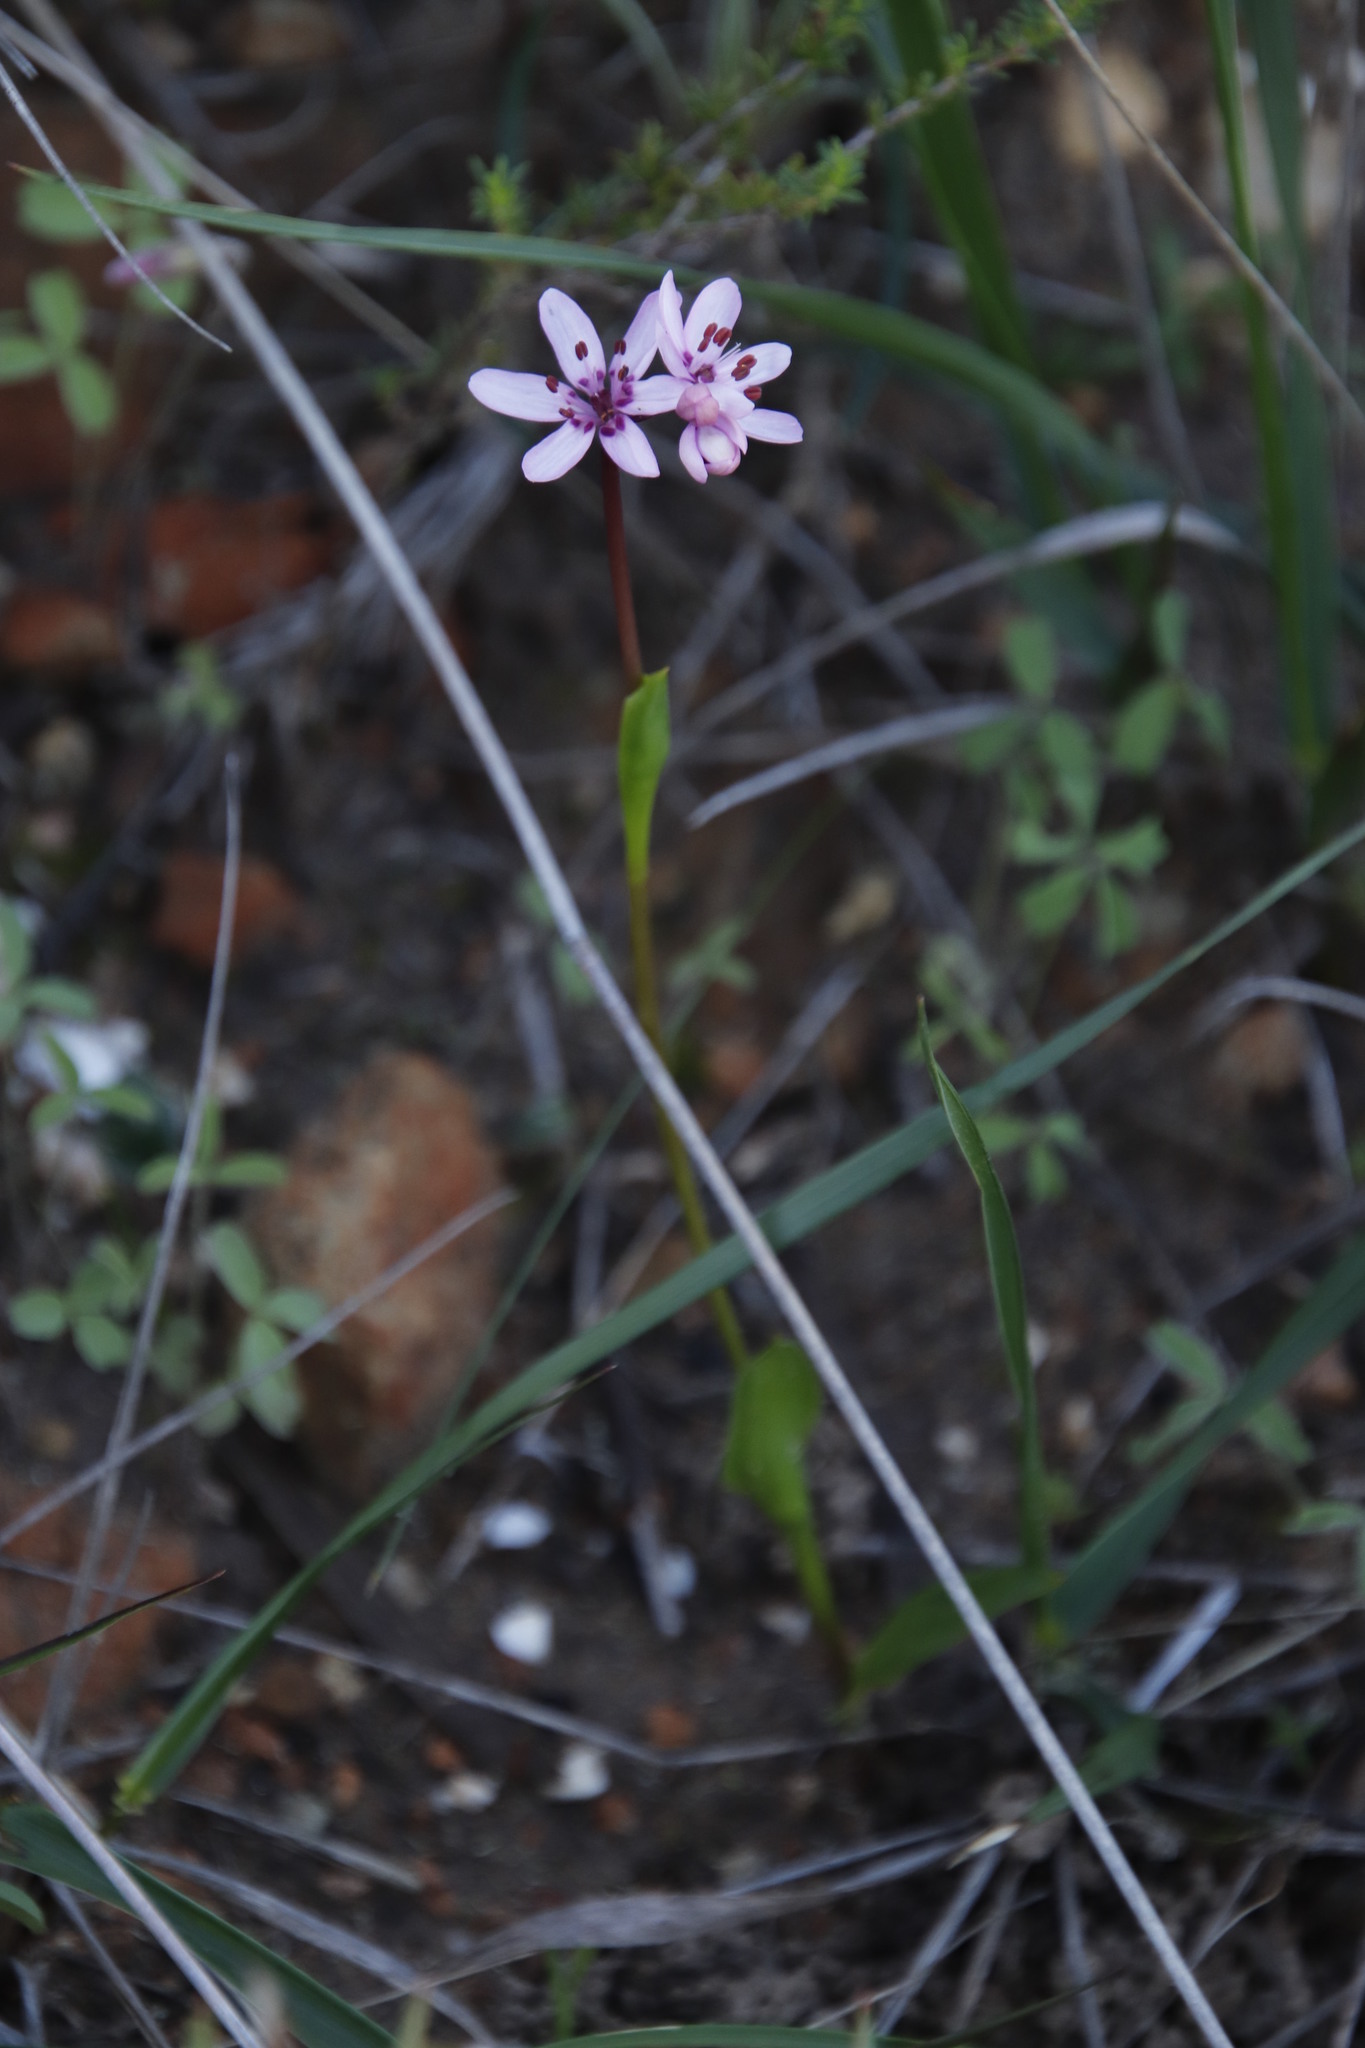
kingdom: Plantae
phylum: Tracheophyta
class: Liliopsida
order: Liliales
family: Colchicaceae
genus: Wurmbea
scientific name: Wurmbea punctata
